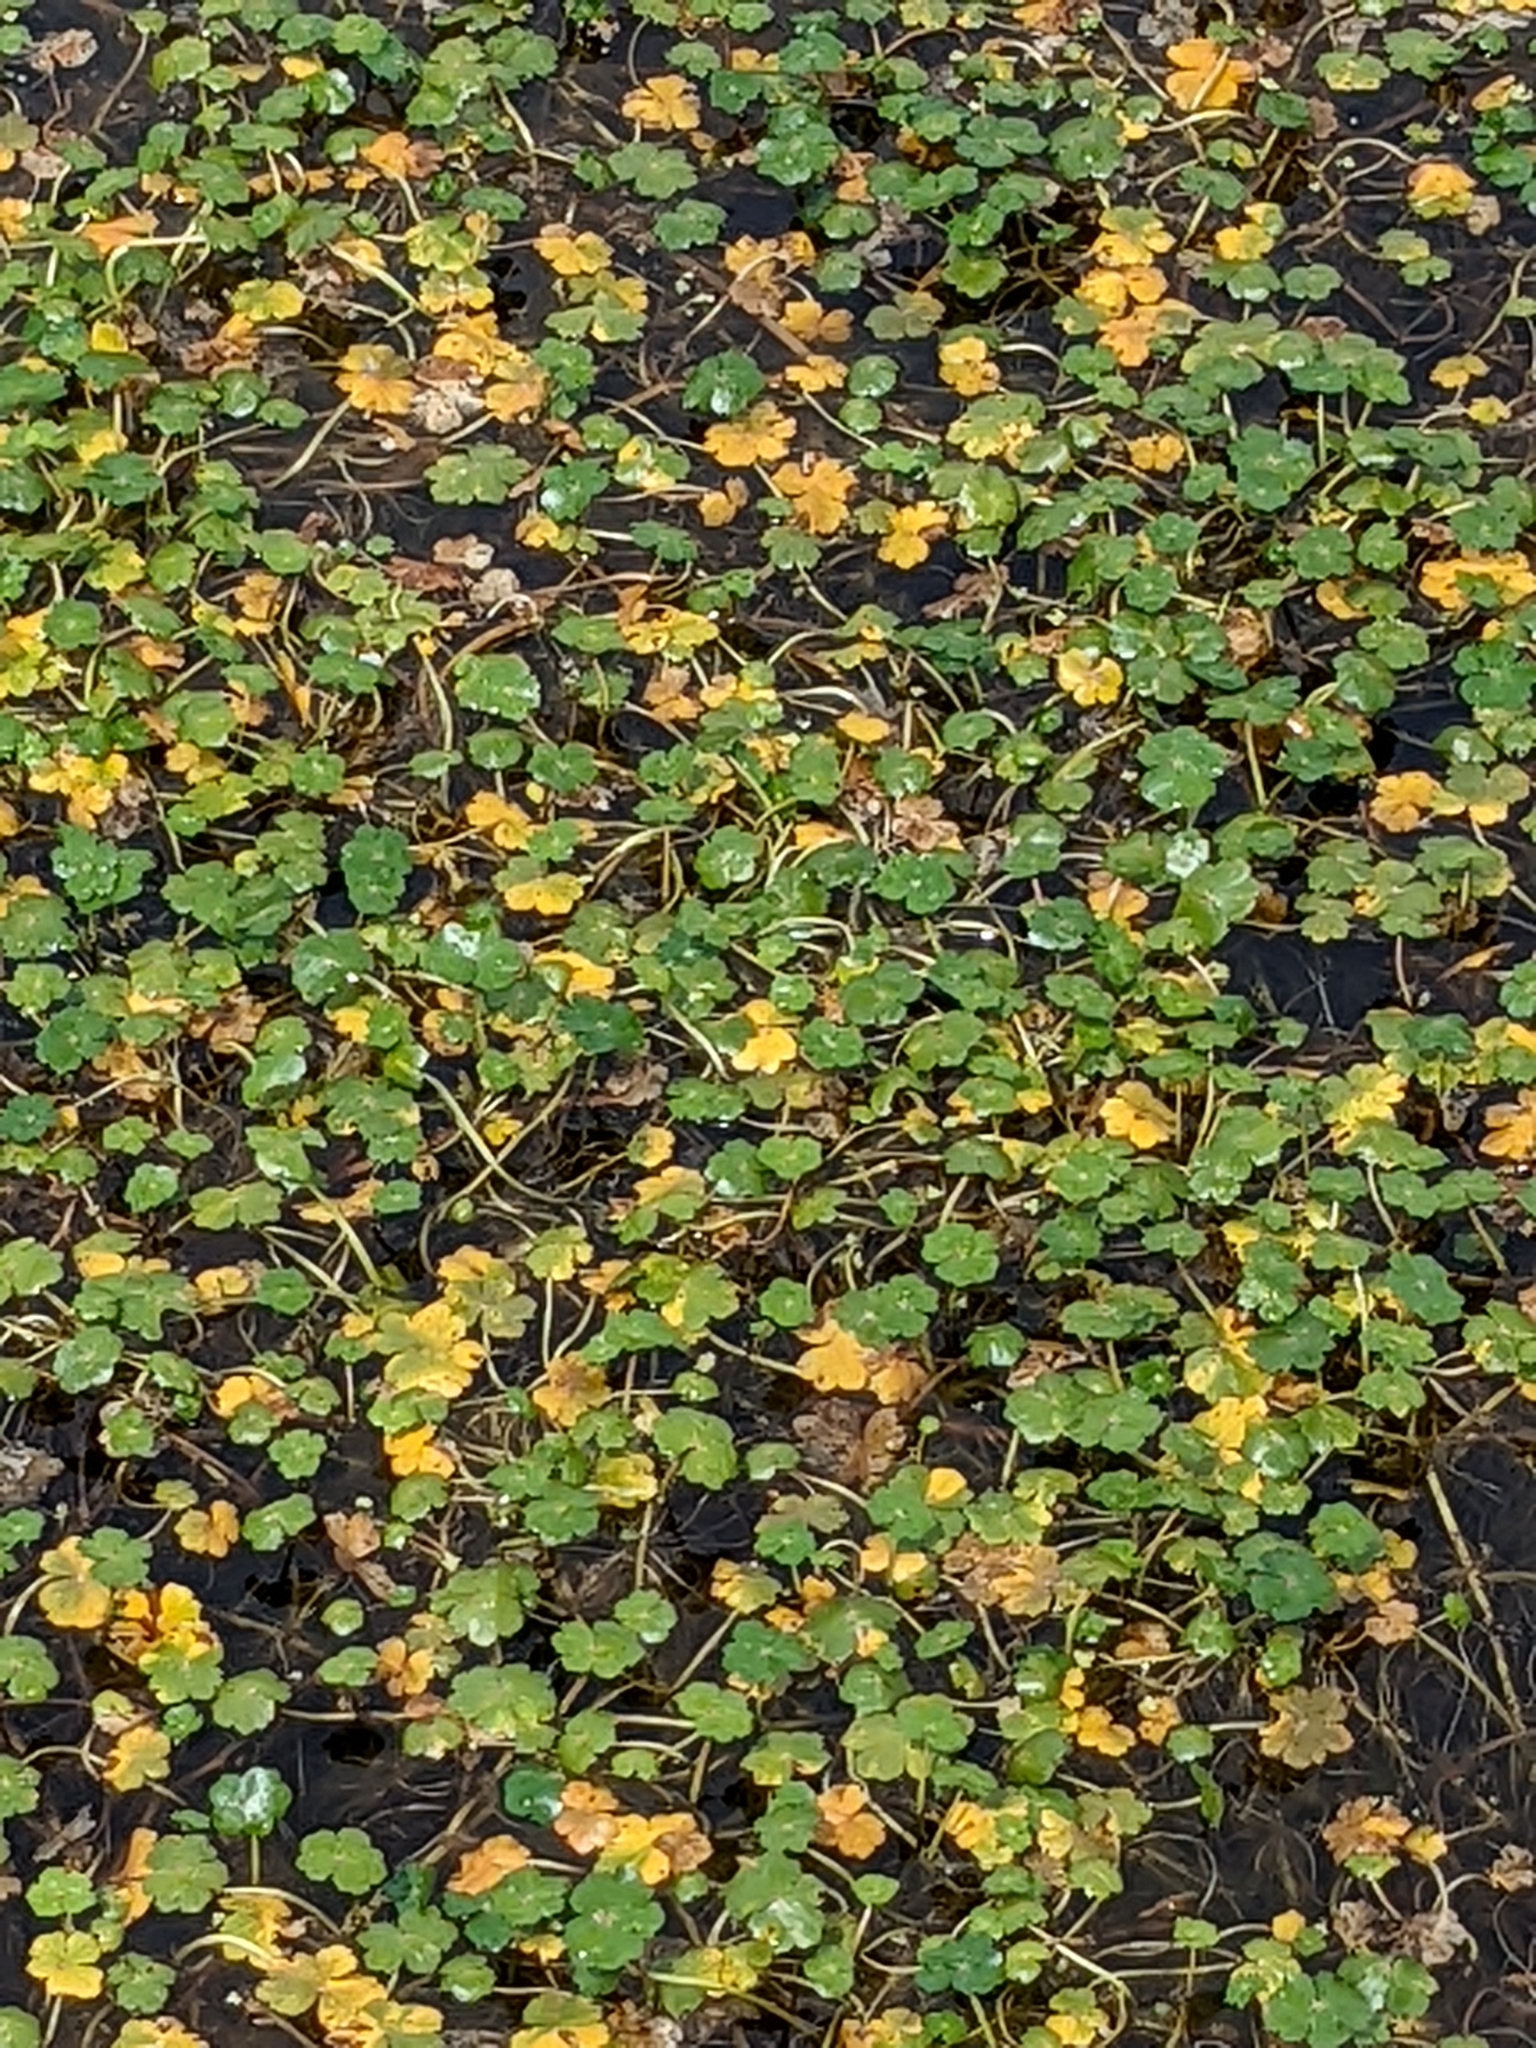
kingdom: Plantae
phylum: Tracheophyta
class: Magnoliopsida
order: Apiales
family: Araliaceae
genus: Hydrocotyle
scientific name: Hydrocotyle ranunculoides
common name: Floating pennywort
